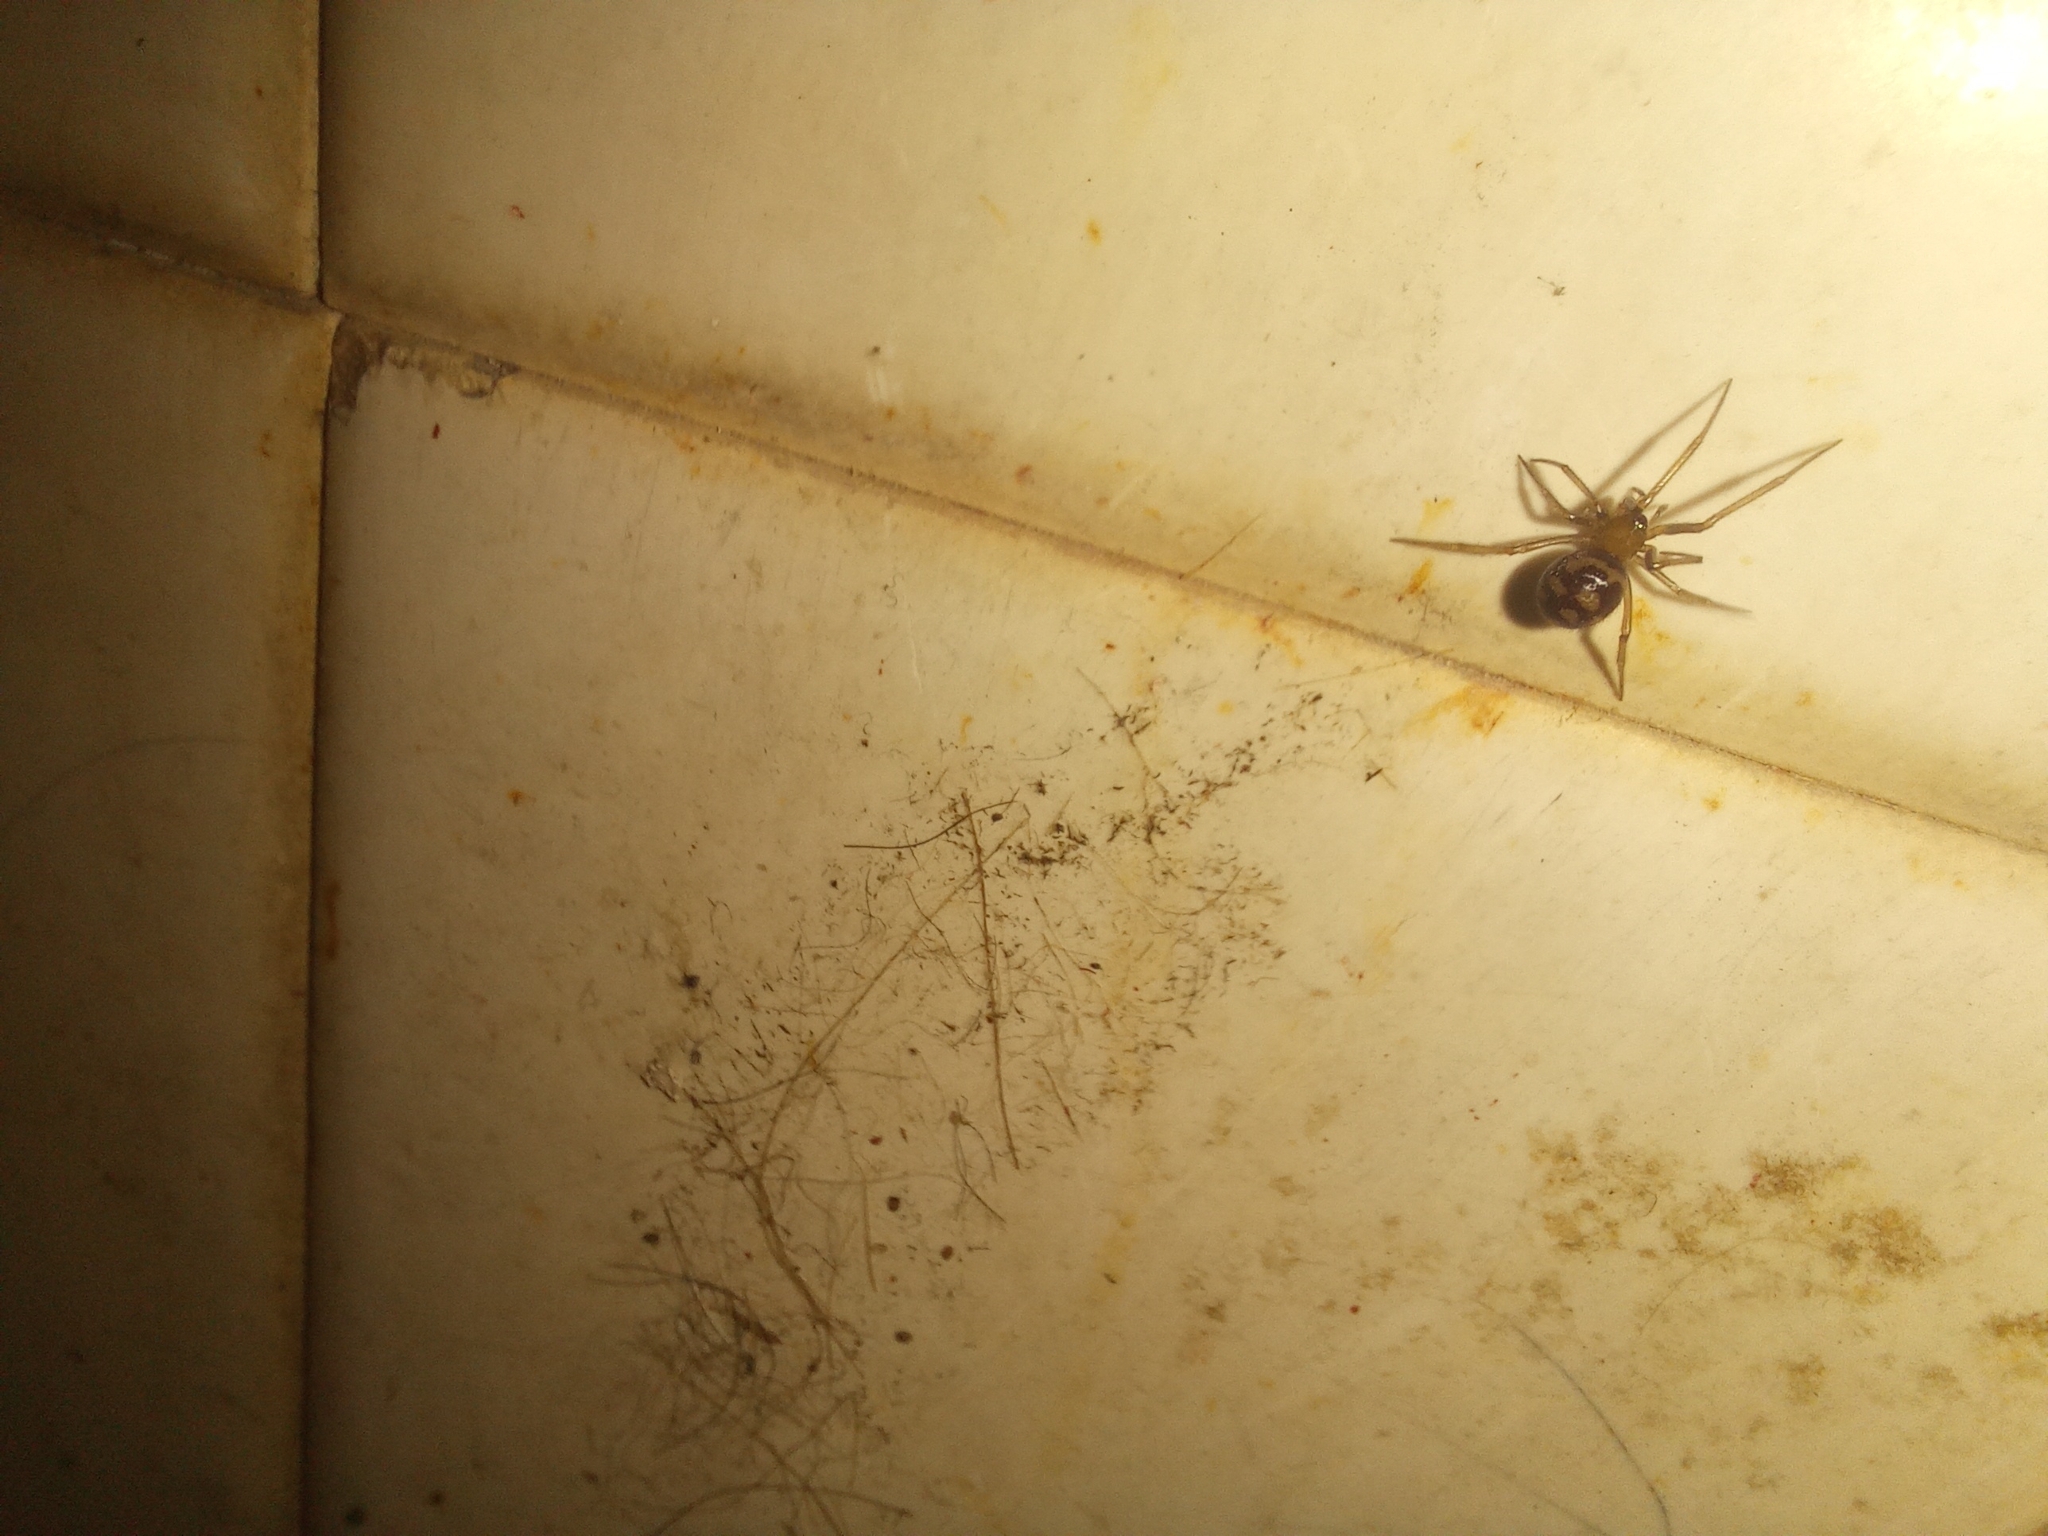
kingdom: Animalia
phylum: Arthropoda
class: Arachnida
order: Araneae
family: Theridiidae
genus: Steatoda
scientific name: Steatoda grossa
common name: False black widow
